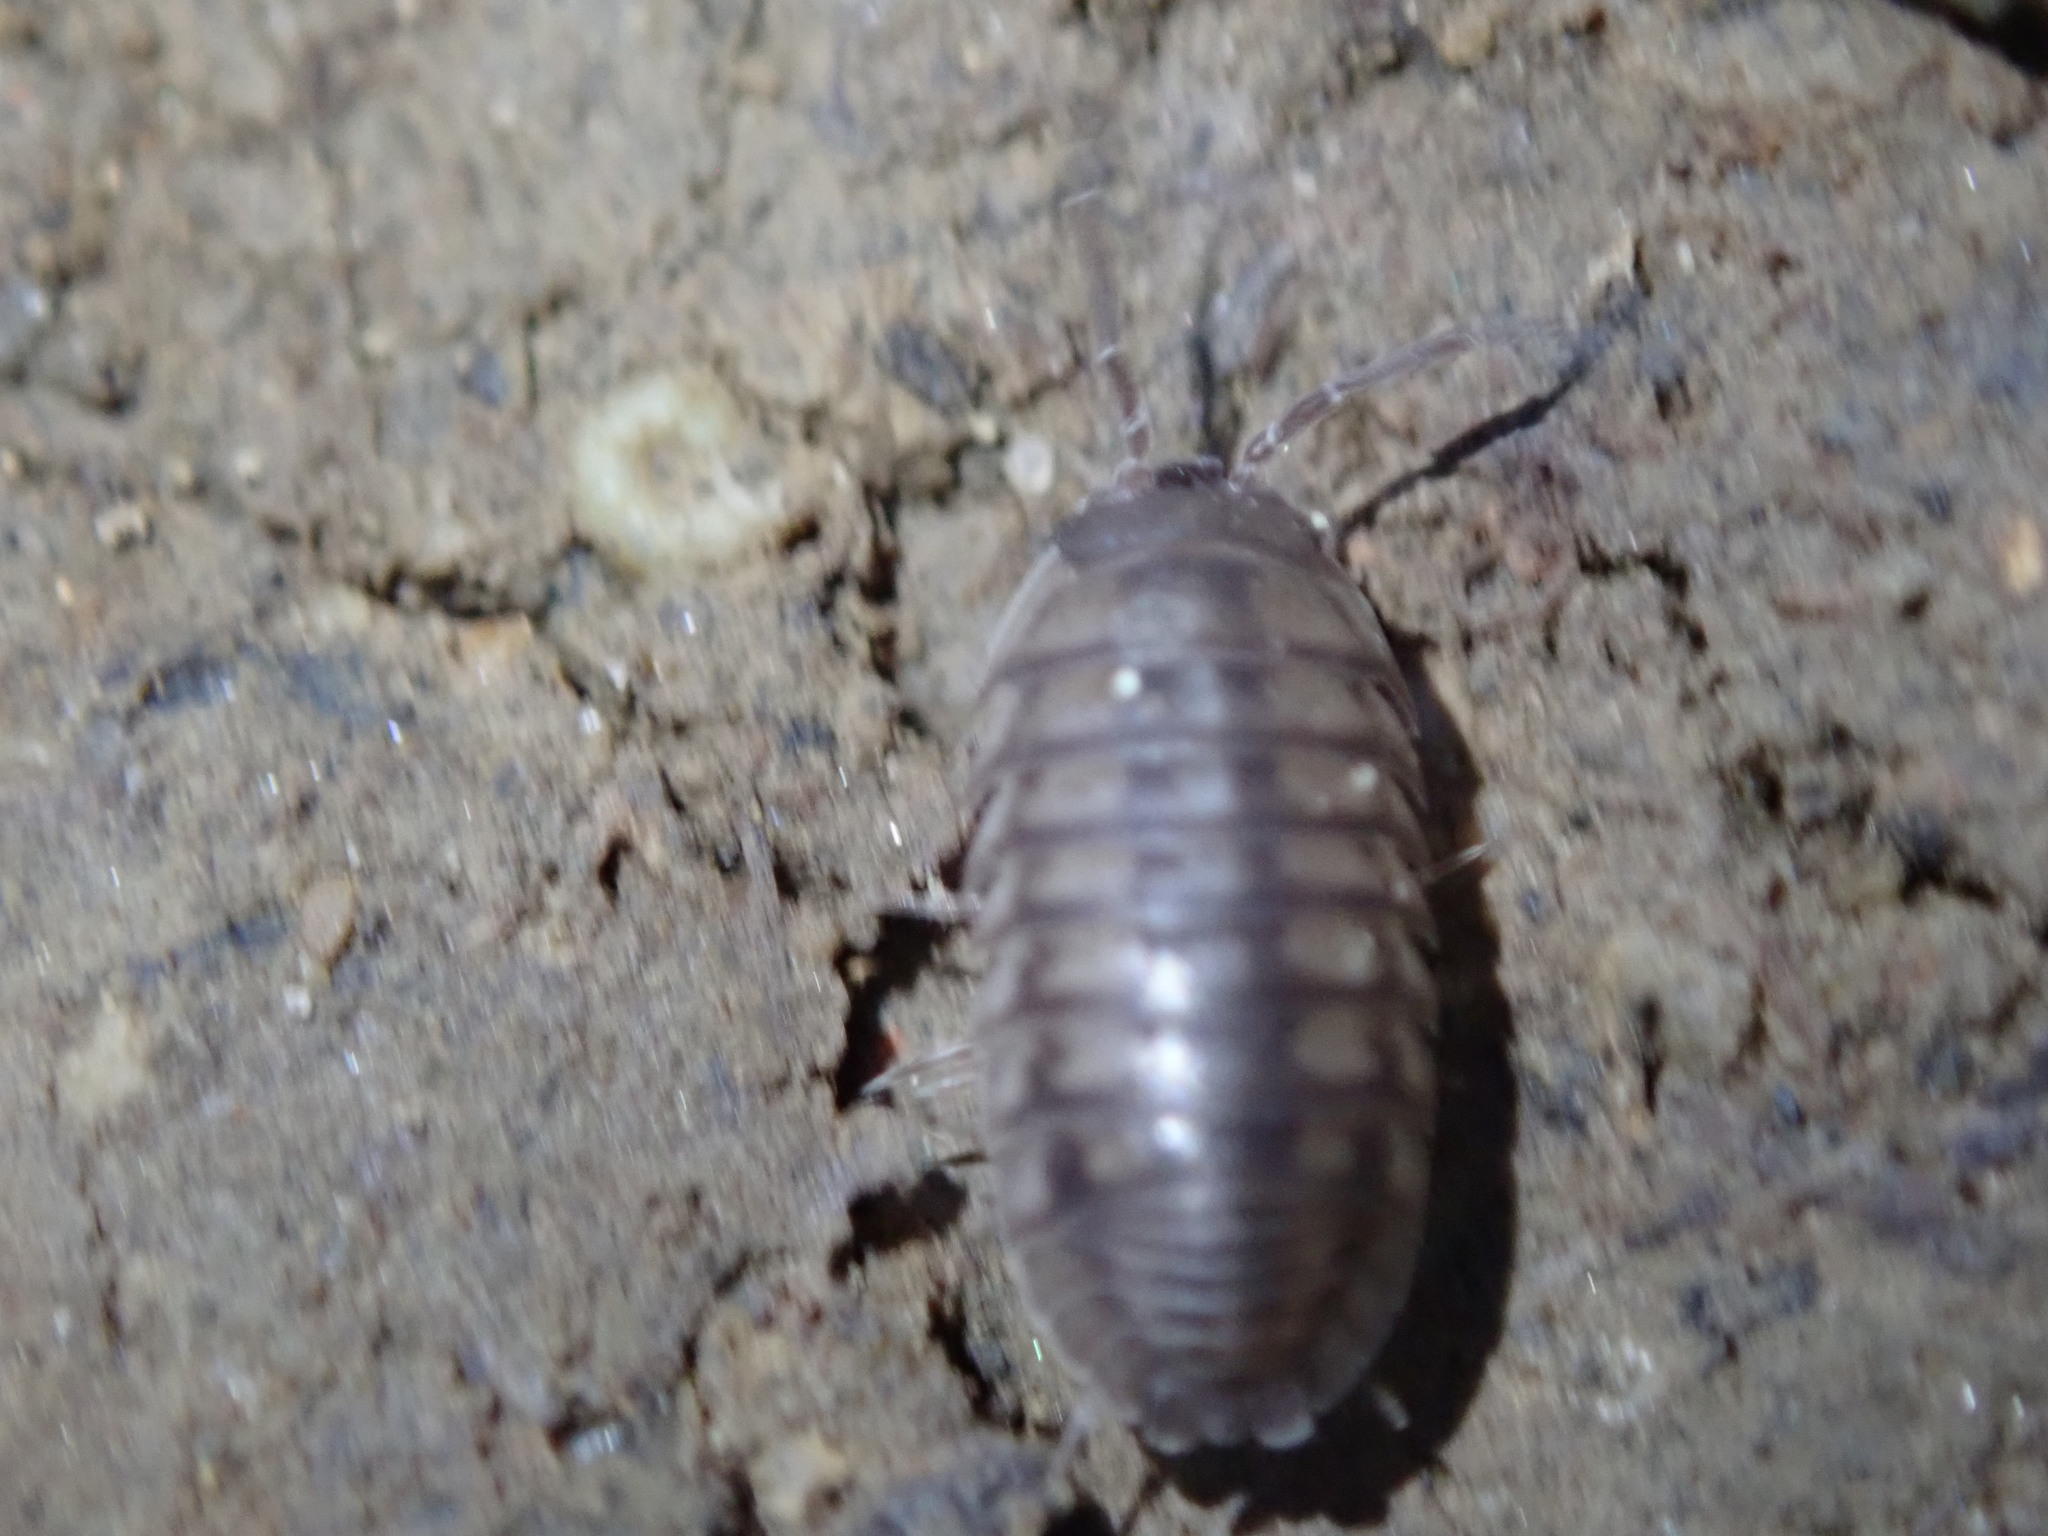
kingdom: Animalia
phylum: Arthropoda
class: Malacostraca
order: Isopoda
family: Armadillidiidae
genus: Armadillidium
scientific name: Armadillidium nasatum
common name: Isopod
